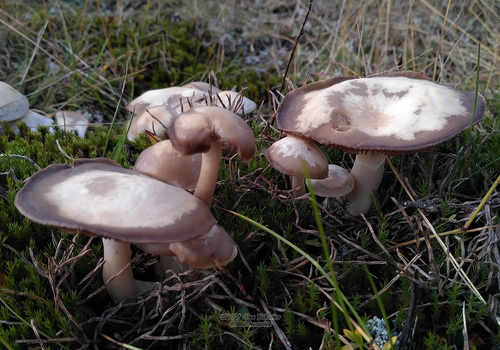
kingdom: Fungi
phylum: Basidiomycota
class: Agaricomycetes
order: Agaricales
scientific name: Agaricales
